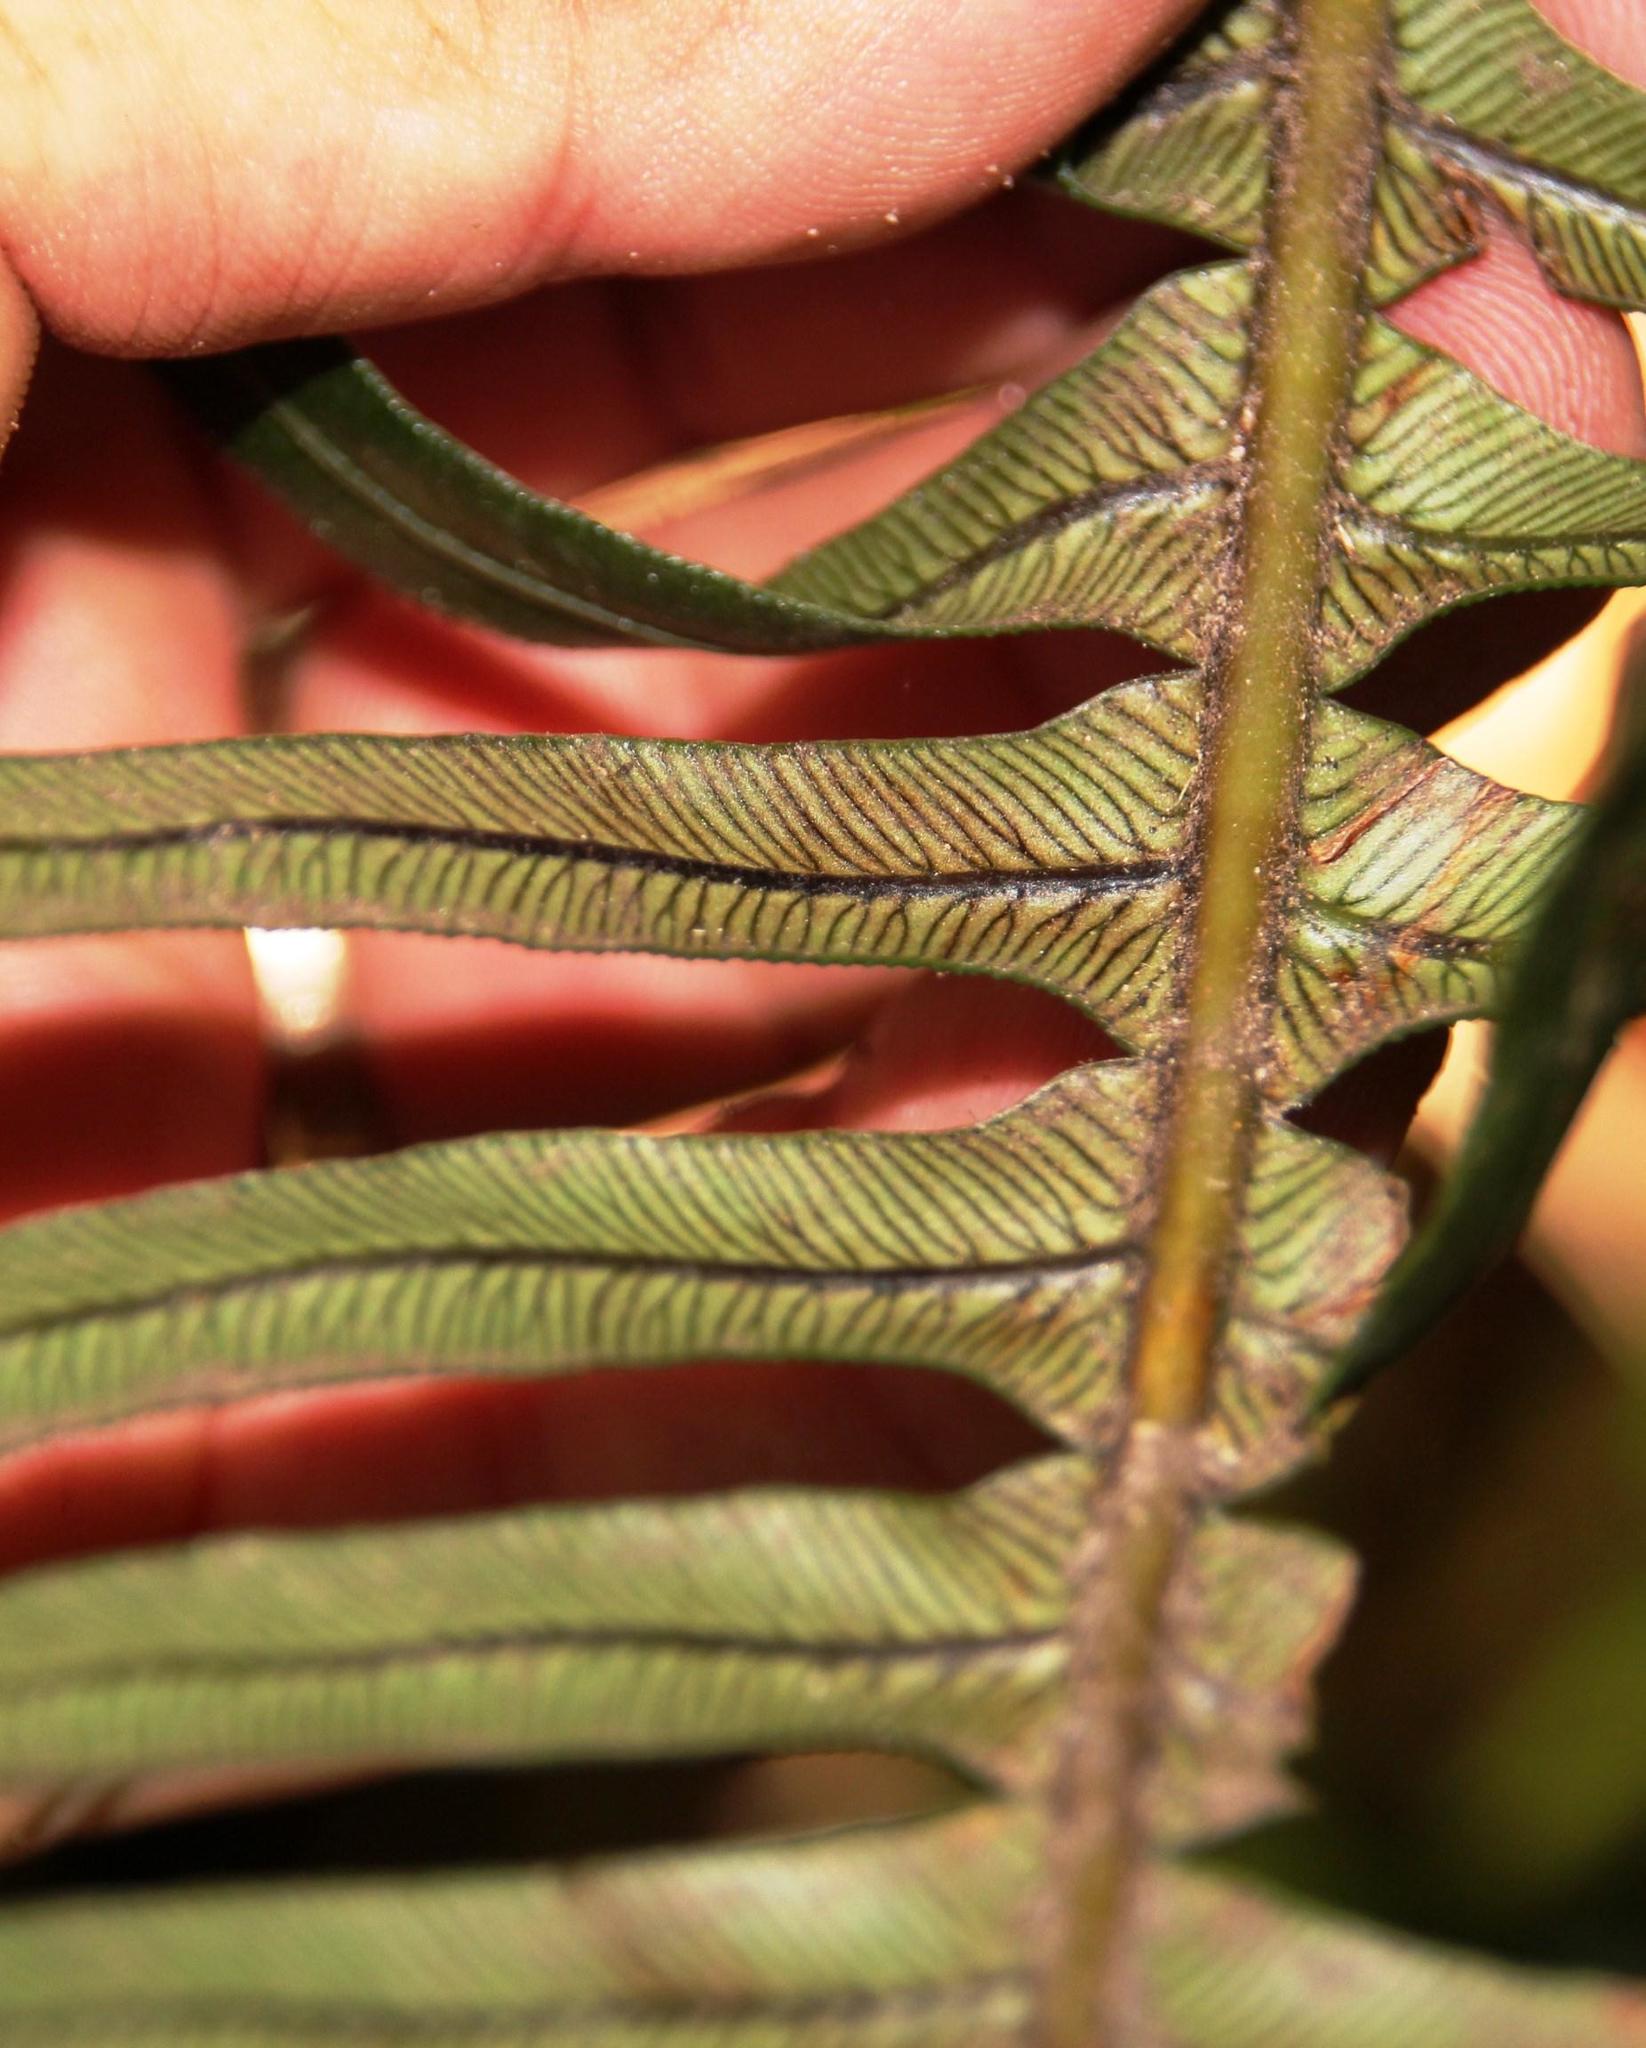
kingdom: Plantae
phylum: Tracheophyta
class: Polypodiopsida
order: Polypodiales
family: Blechnaceae
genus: Lomaridium
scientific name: Lomaridium attenuatum
